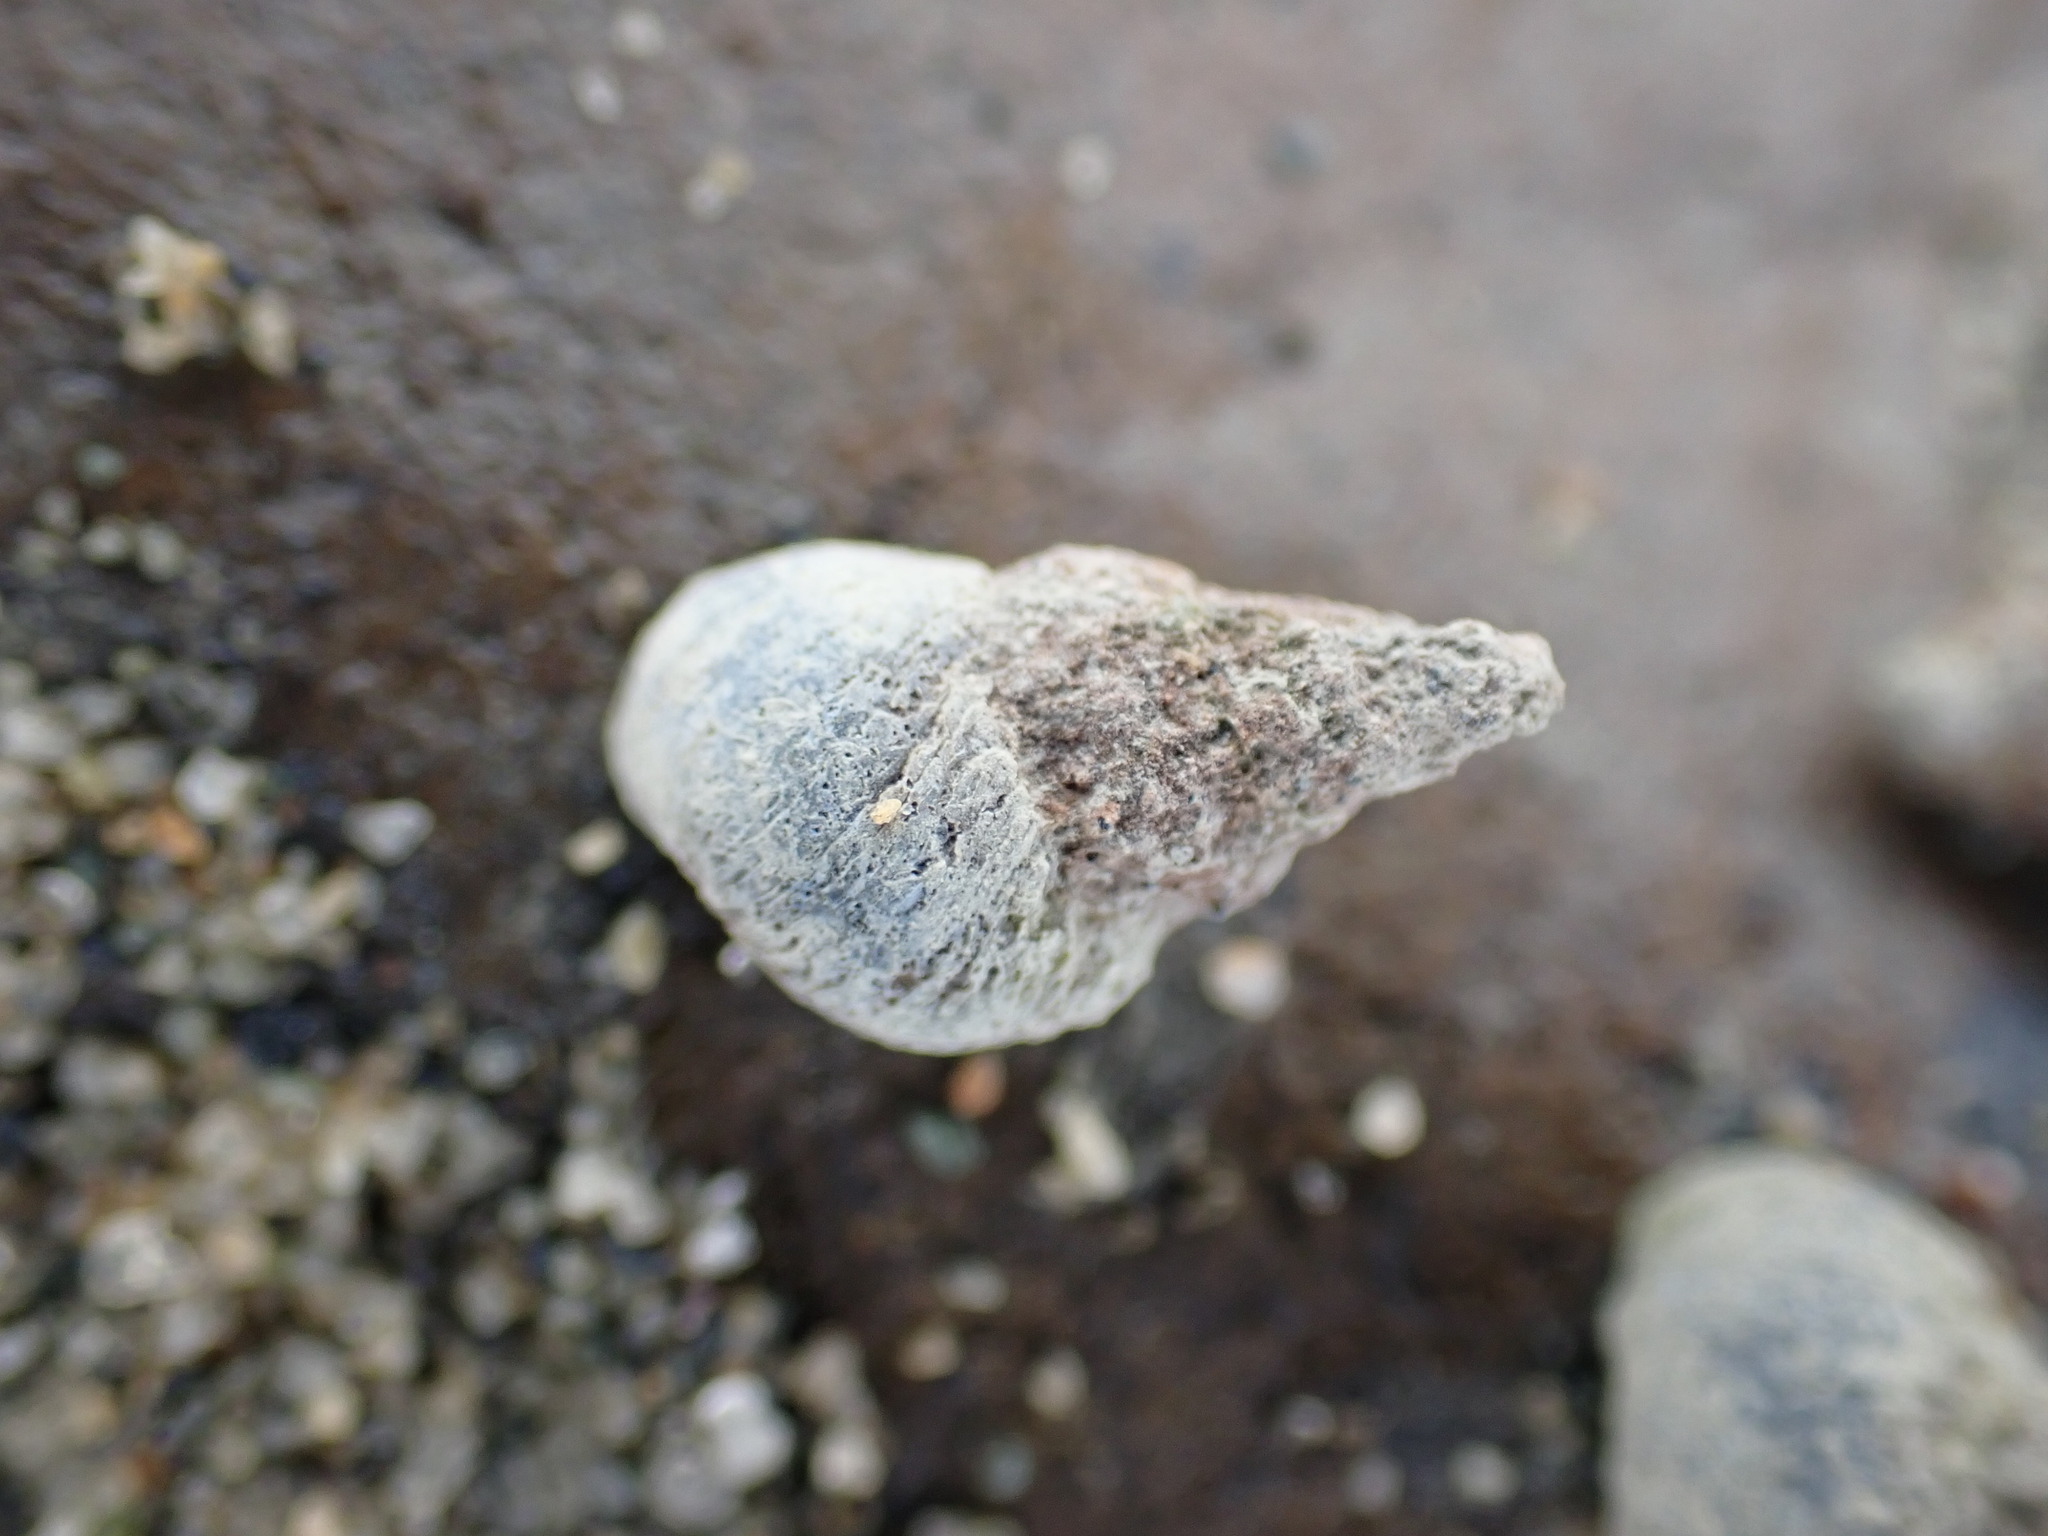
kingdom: Animalia
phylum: Mollusca
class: Gastropoda
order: Littorinimorpha
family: Littorinidae
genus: Austrolittorina
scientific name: Austrolittorina antipodum
